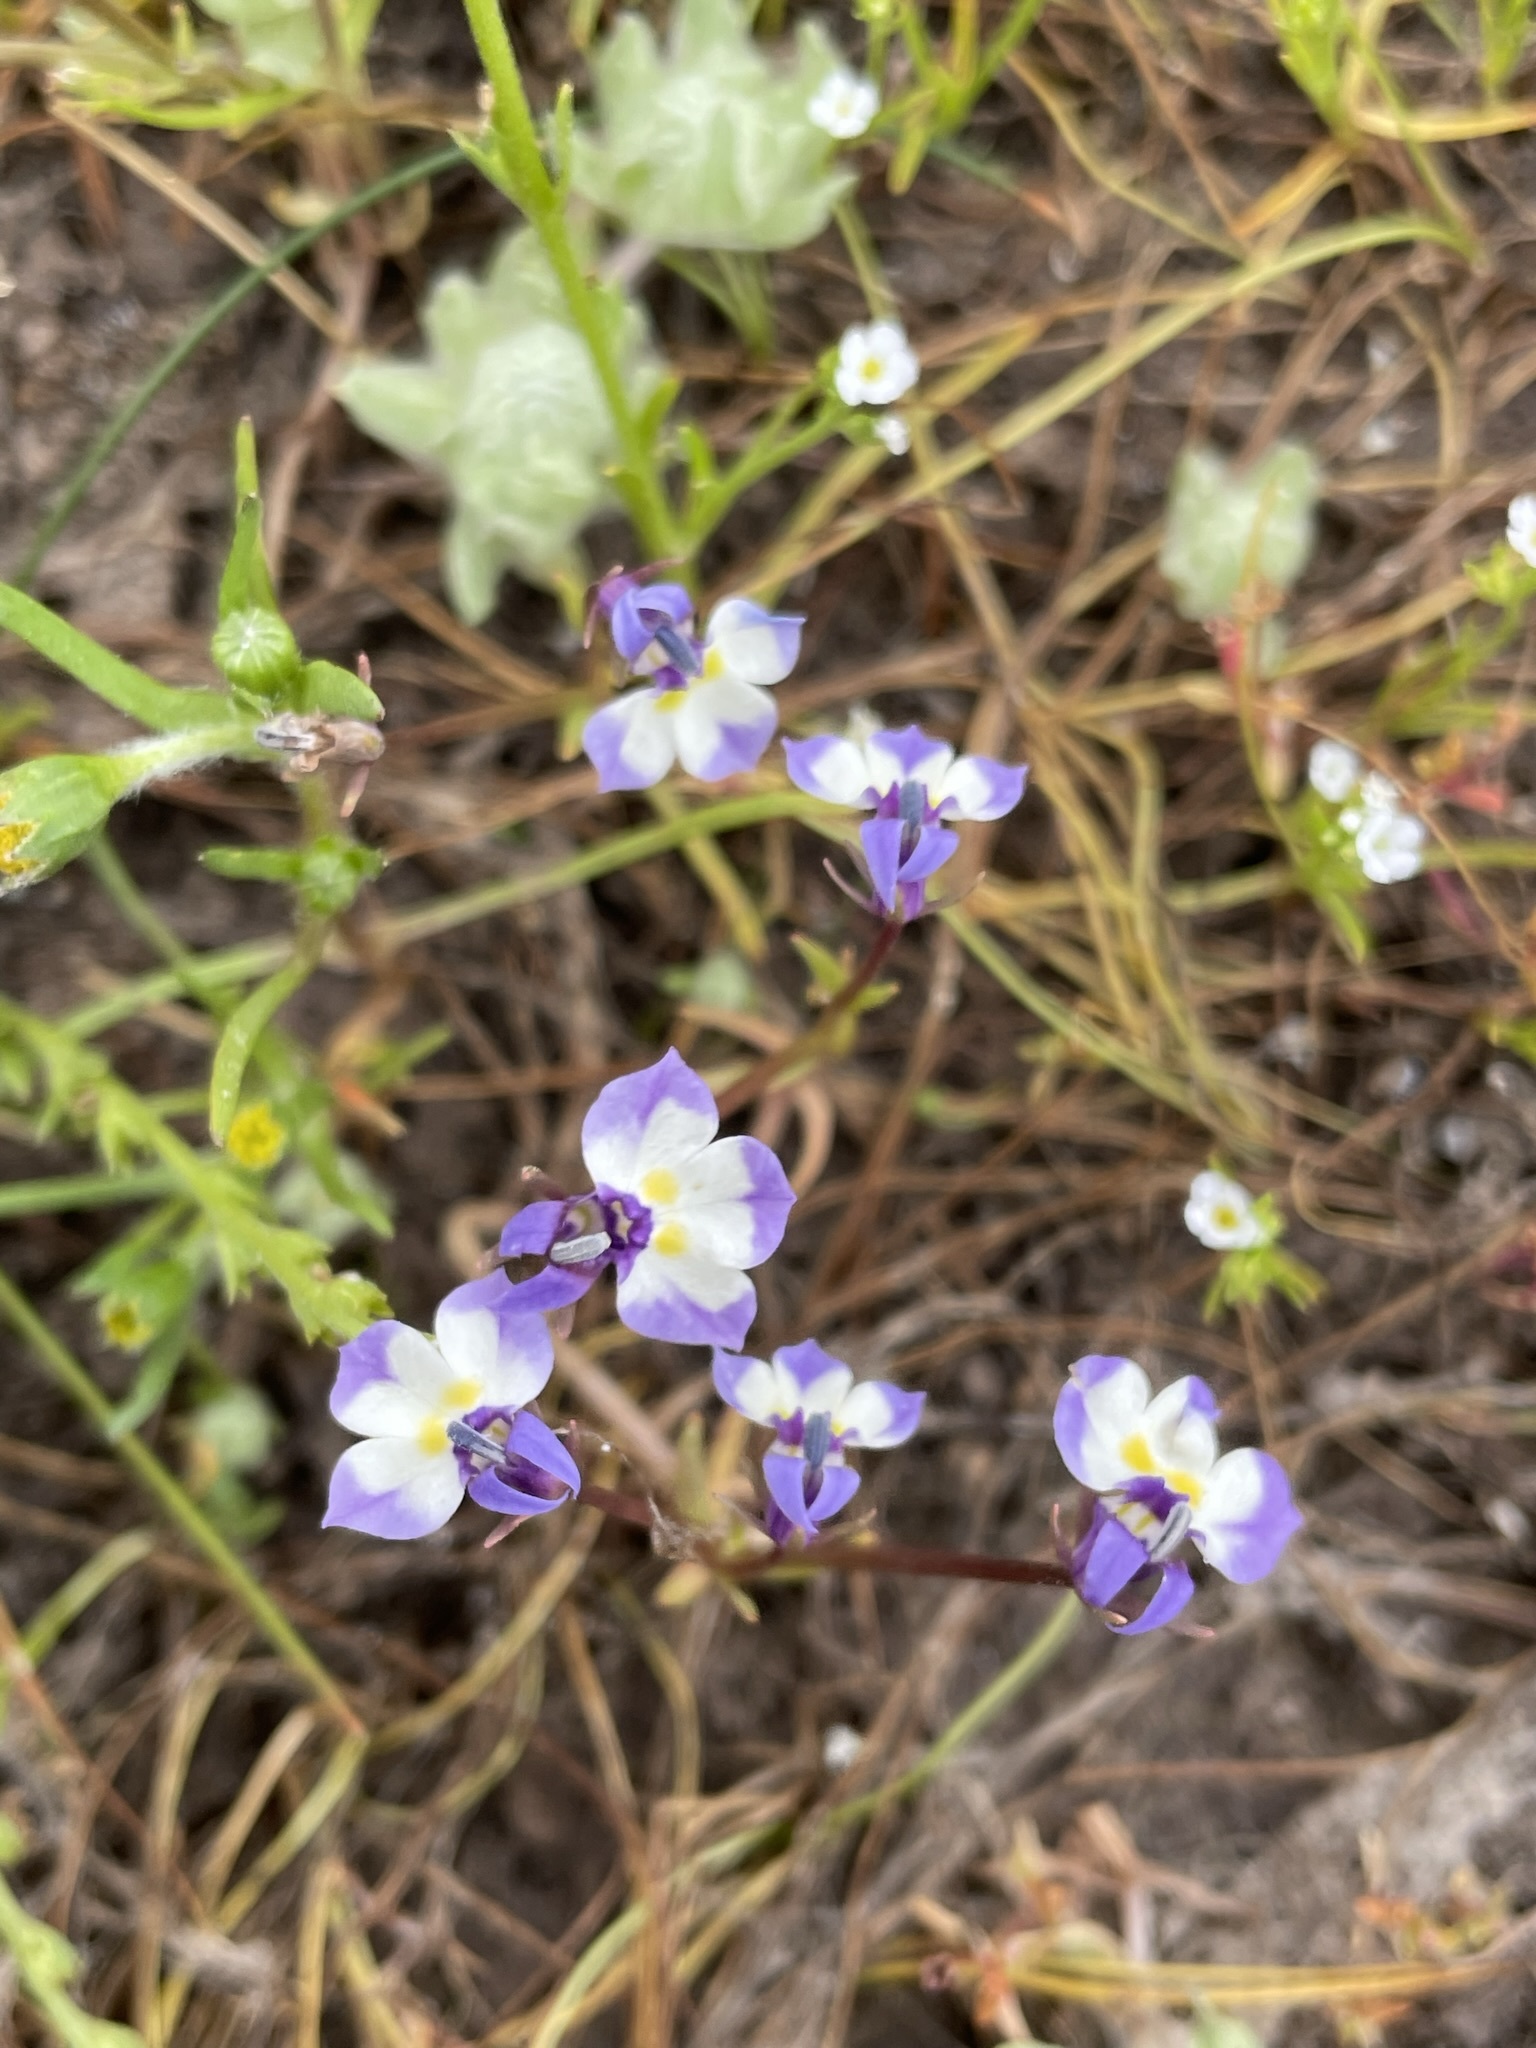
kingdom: Plantae
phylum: Tracheophyta
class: Magnoliopsida
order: Asterales
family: Campanulaceae
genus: Downingia
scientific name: Downingia bicornuta
